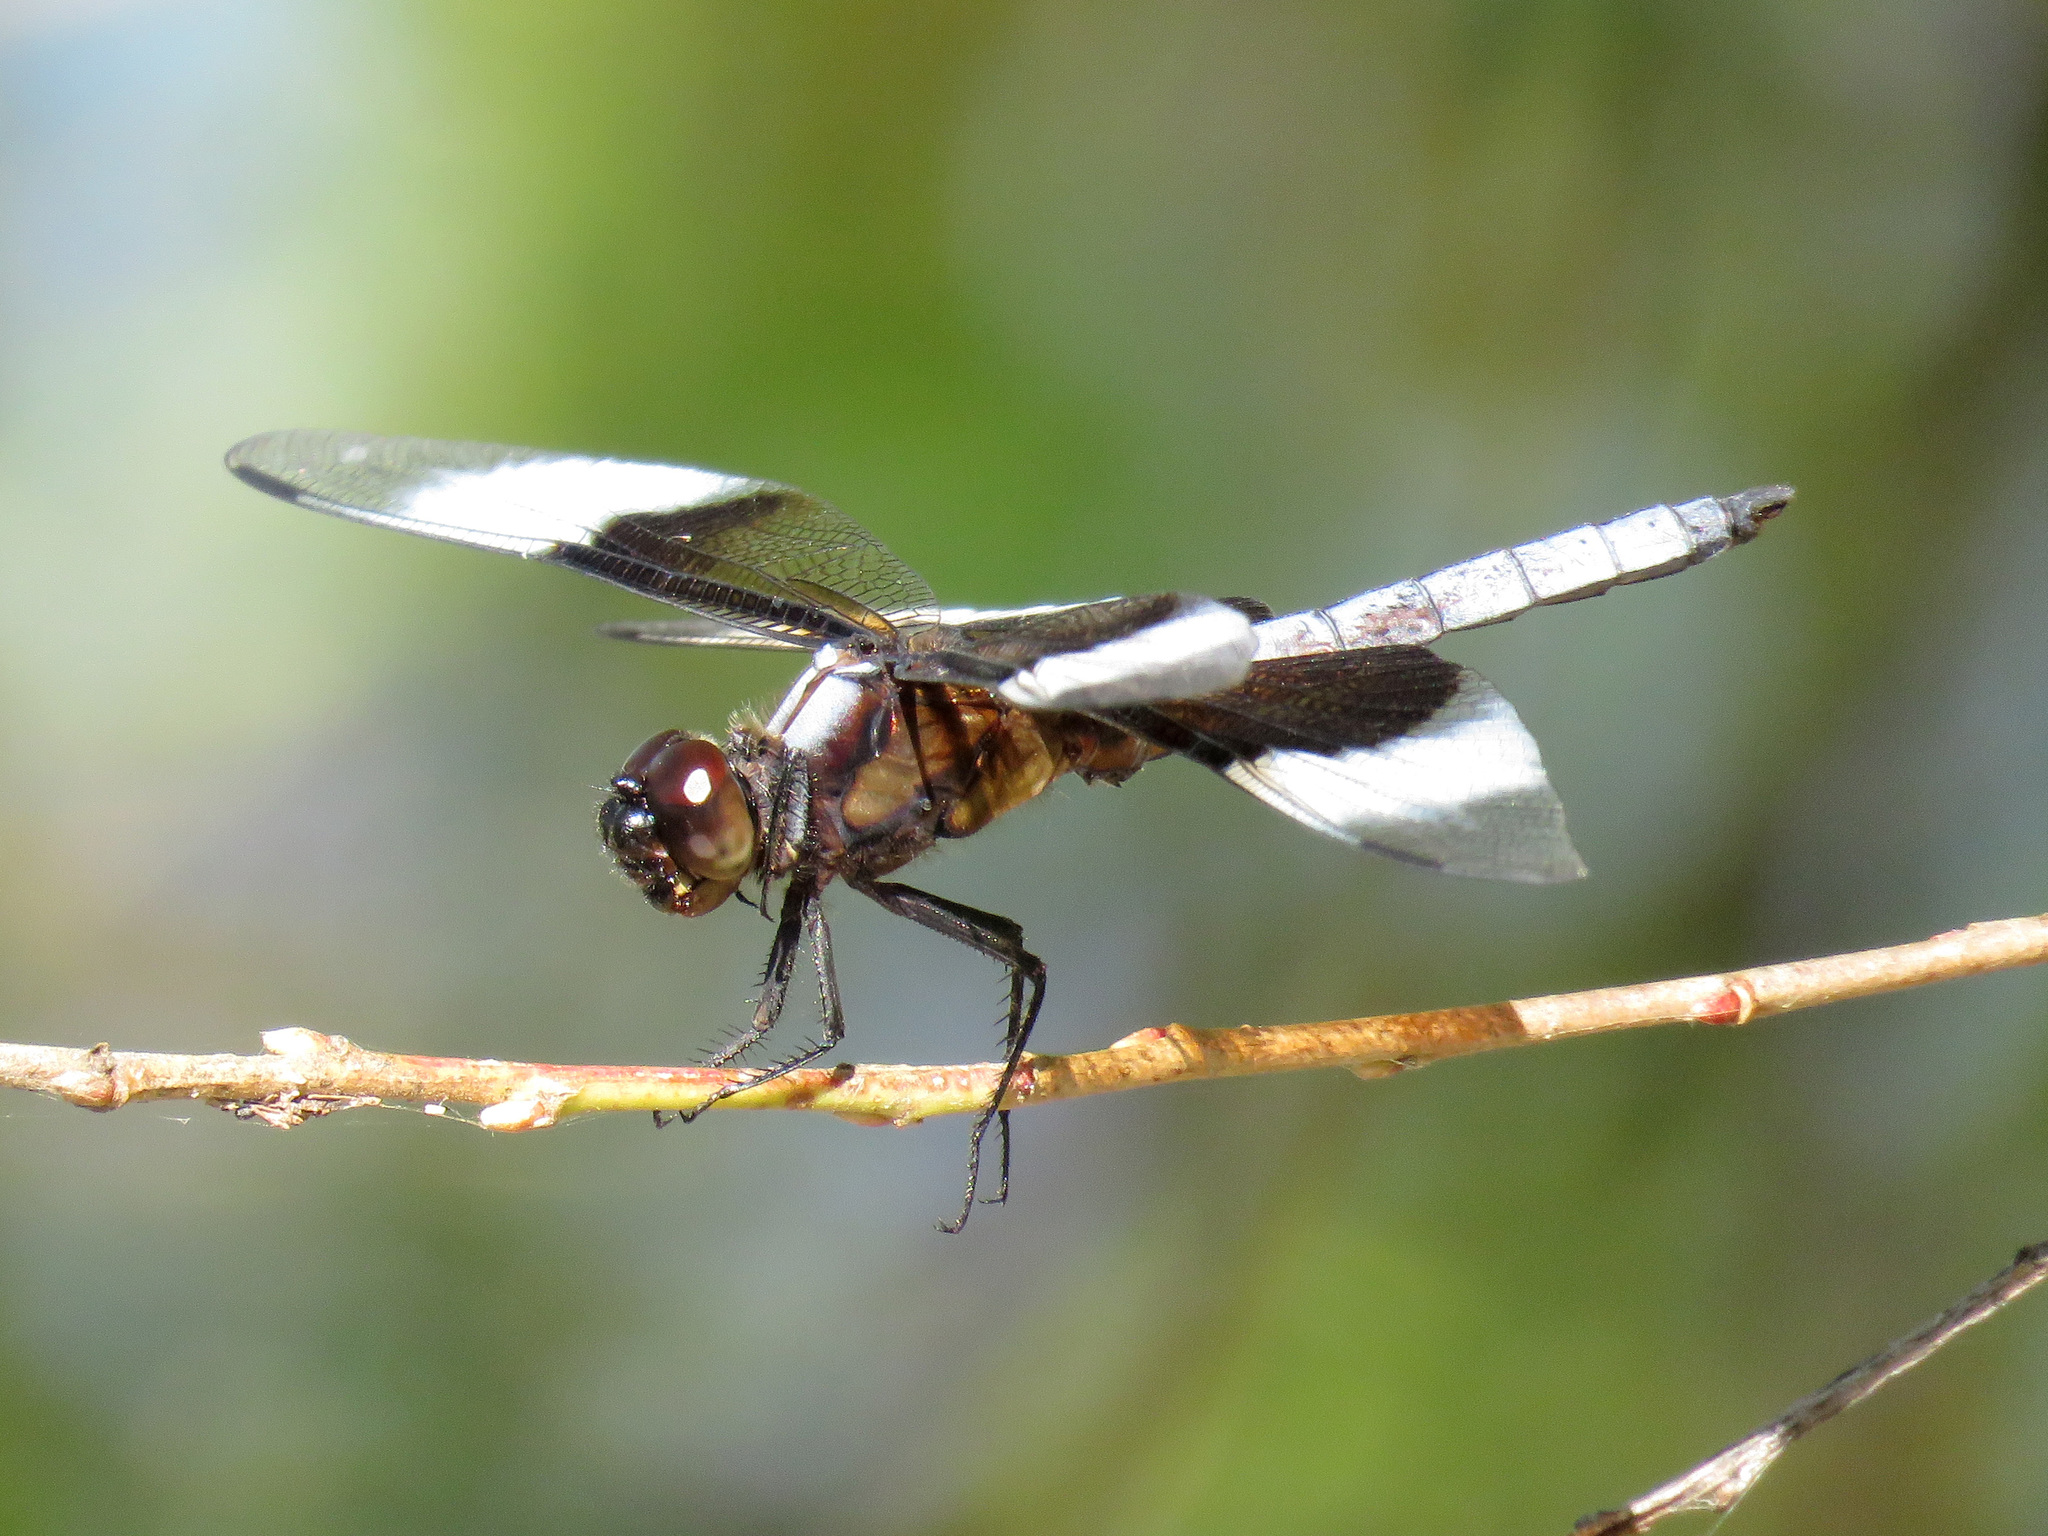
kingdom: Animalia
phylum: Arthropoda
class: Insecta
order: Odonata
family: Libellulidae
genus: Libellula
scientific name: Libellula luctuosa
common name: Widow skimmer
